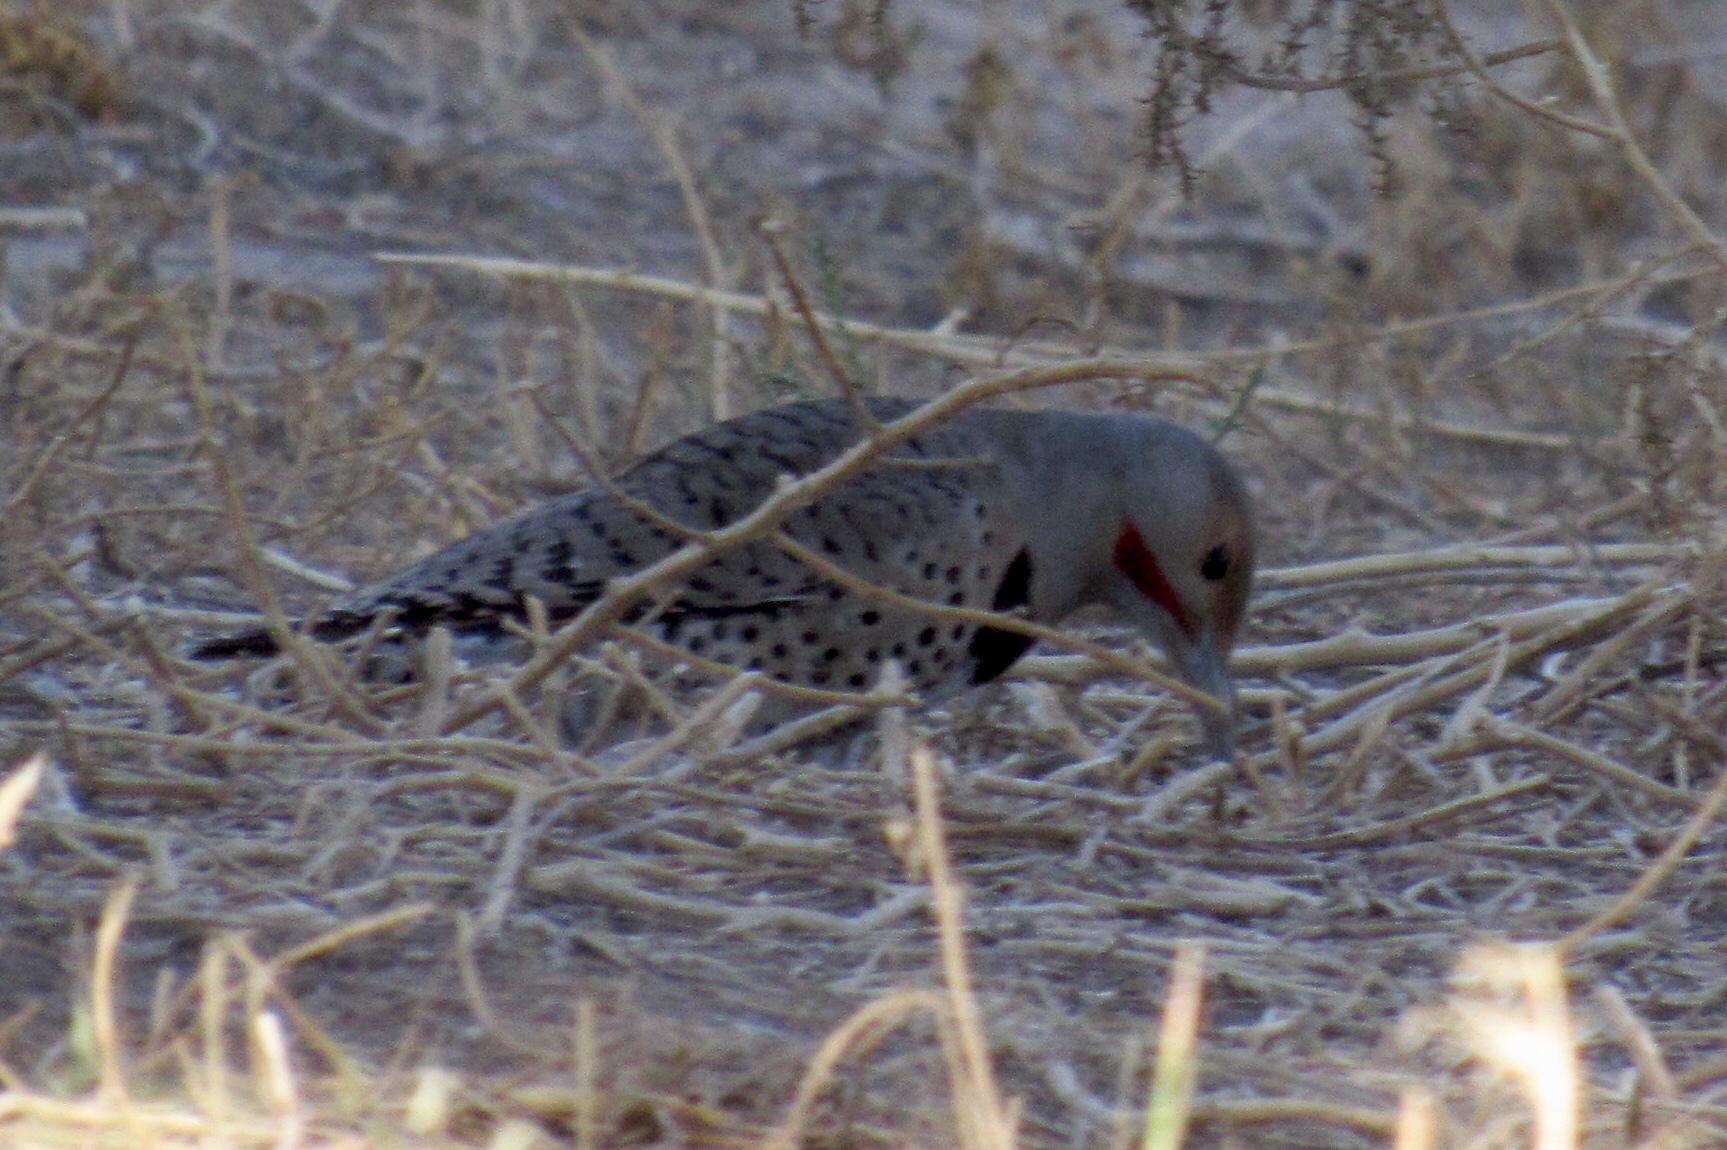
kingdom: Animalia
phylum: Chordata
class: Aves
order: Piciformes
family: Picidae
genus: Colaptes
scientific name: Colaptes chrysoides
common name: Gilded flicker
